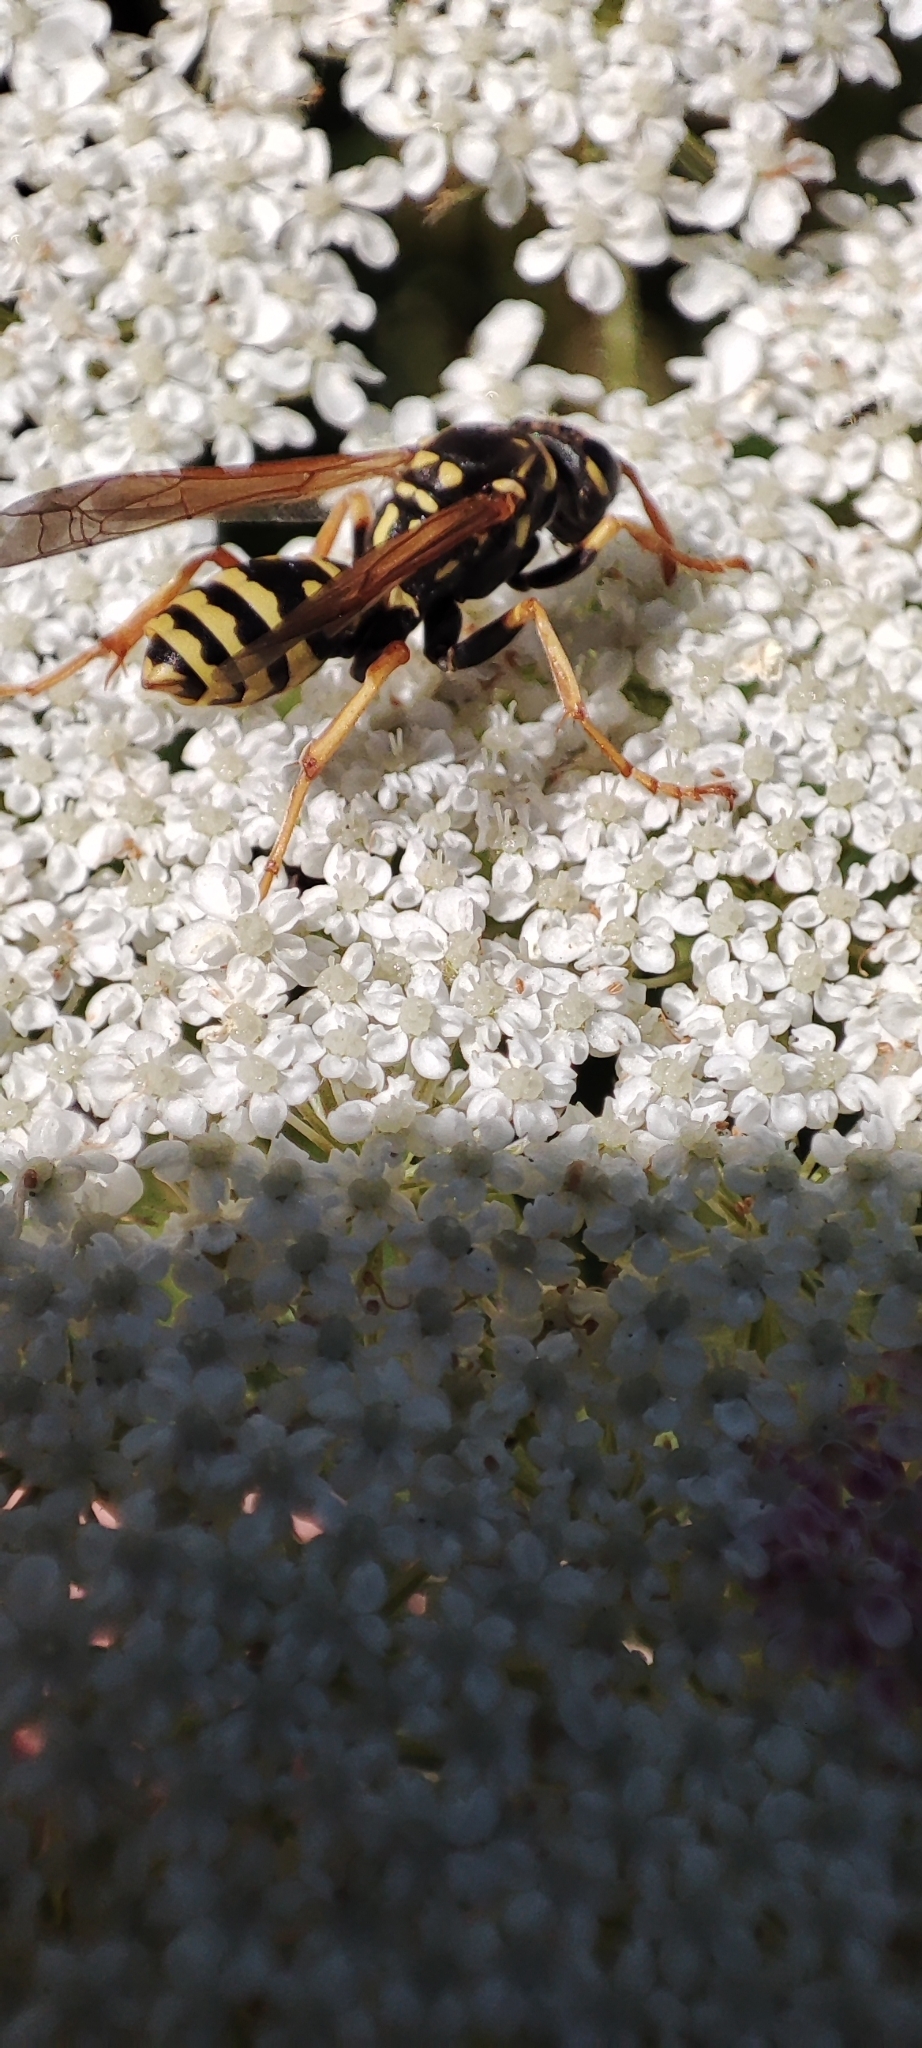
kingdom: Animalia
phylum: Arthropoda
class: Insecta
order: Hymenoptera
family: Eumenidae
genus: Polistes
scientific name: Polistes dominula
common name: Paper wasp
